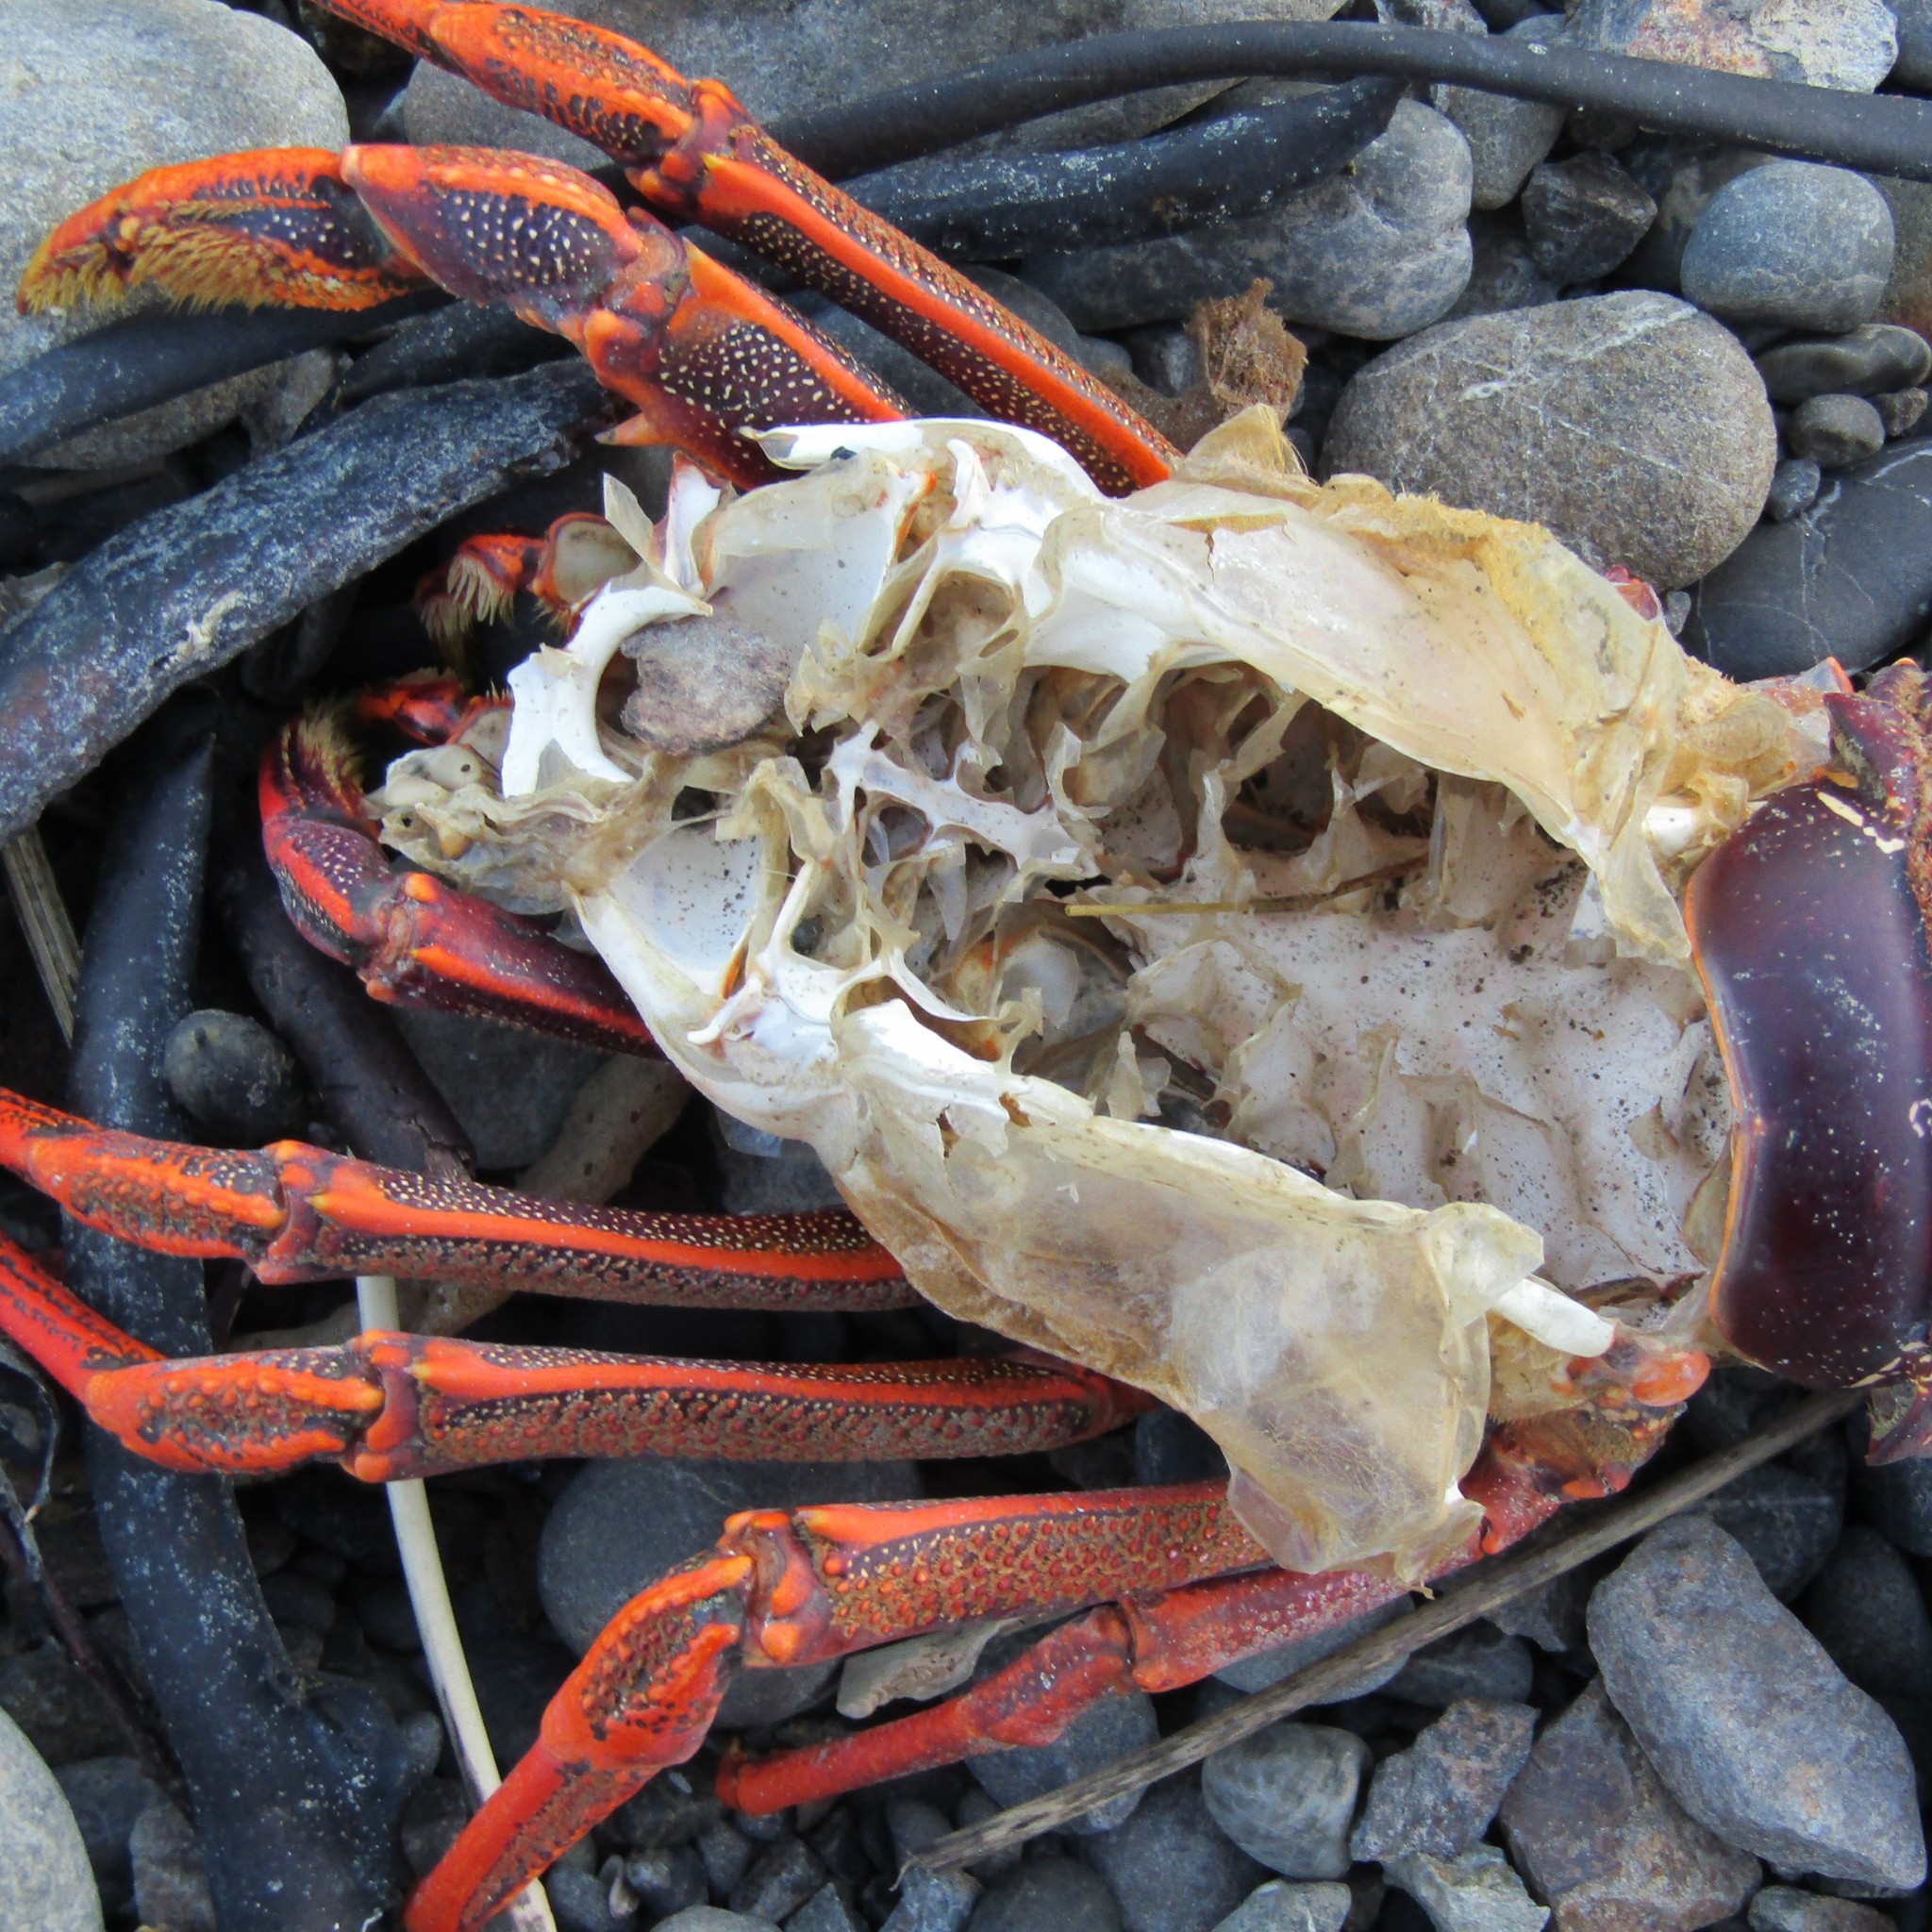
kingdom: Animalia
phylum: Arthropoda
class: Malacostraca
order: Decapoda
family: Palinuridae
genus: Jasus
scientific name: Jasus edwardsii
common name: Red rock lobster
